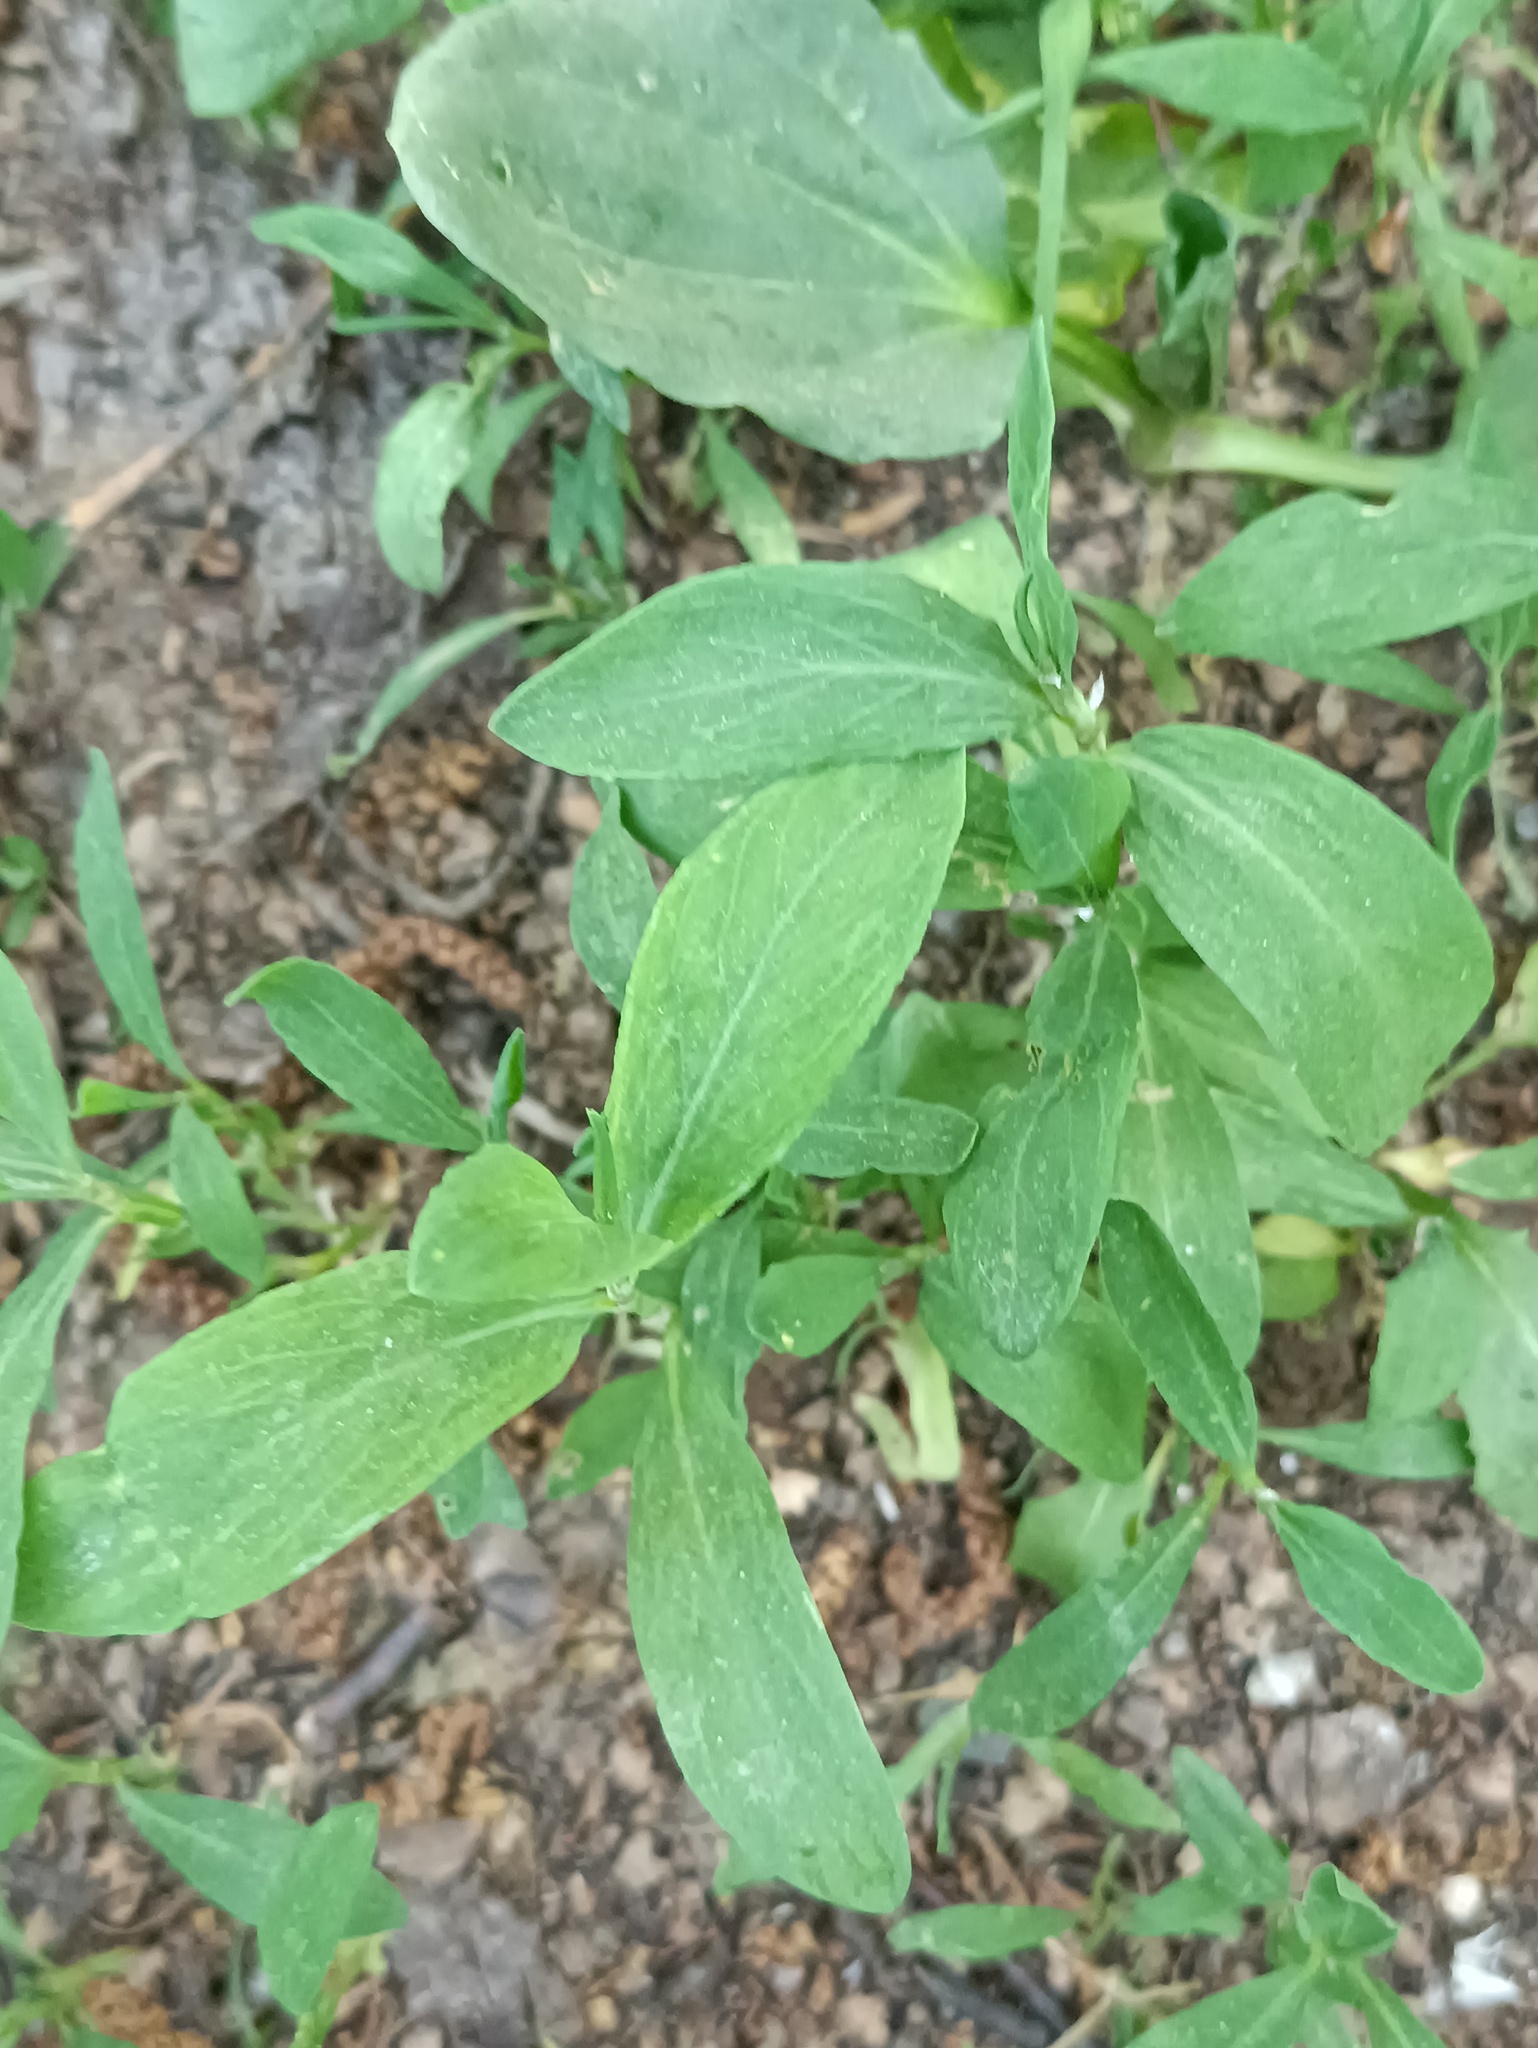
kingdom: Plantae
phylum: Tracheophyta
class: Magnoliopsida
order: Caryophyllales
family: Polygonaceae
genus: Polygonum
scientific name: Polygonum
